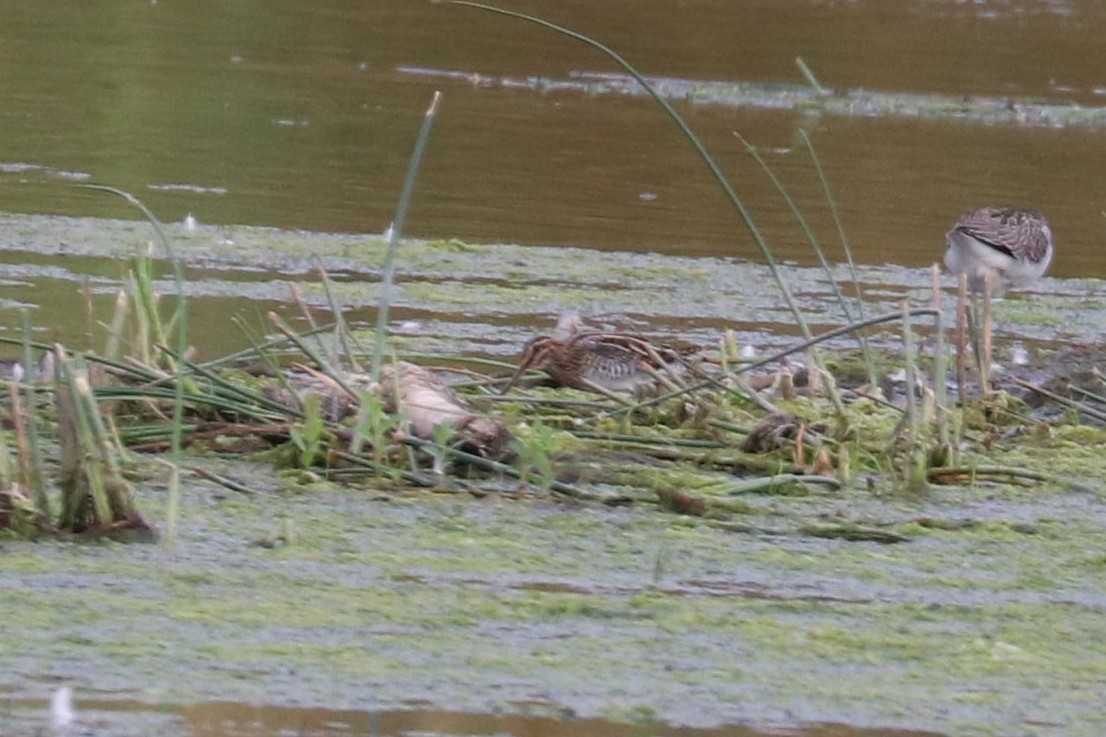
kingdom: Animalia
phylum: Chordata
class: Aves
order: Charadriiformes
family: Scolopacidae
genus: Gallinago
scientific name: Gallinago gallinago
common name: Common snipe
